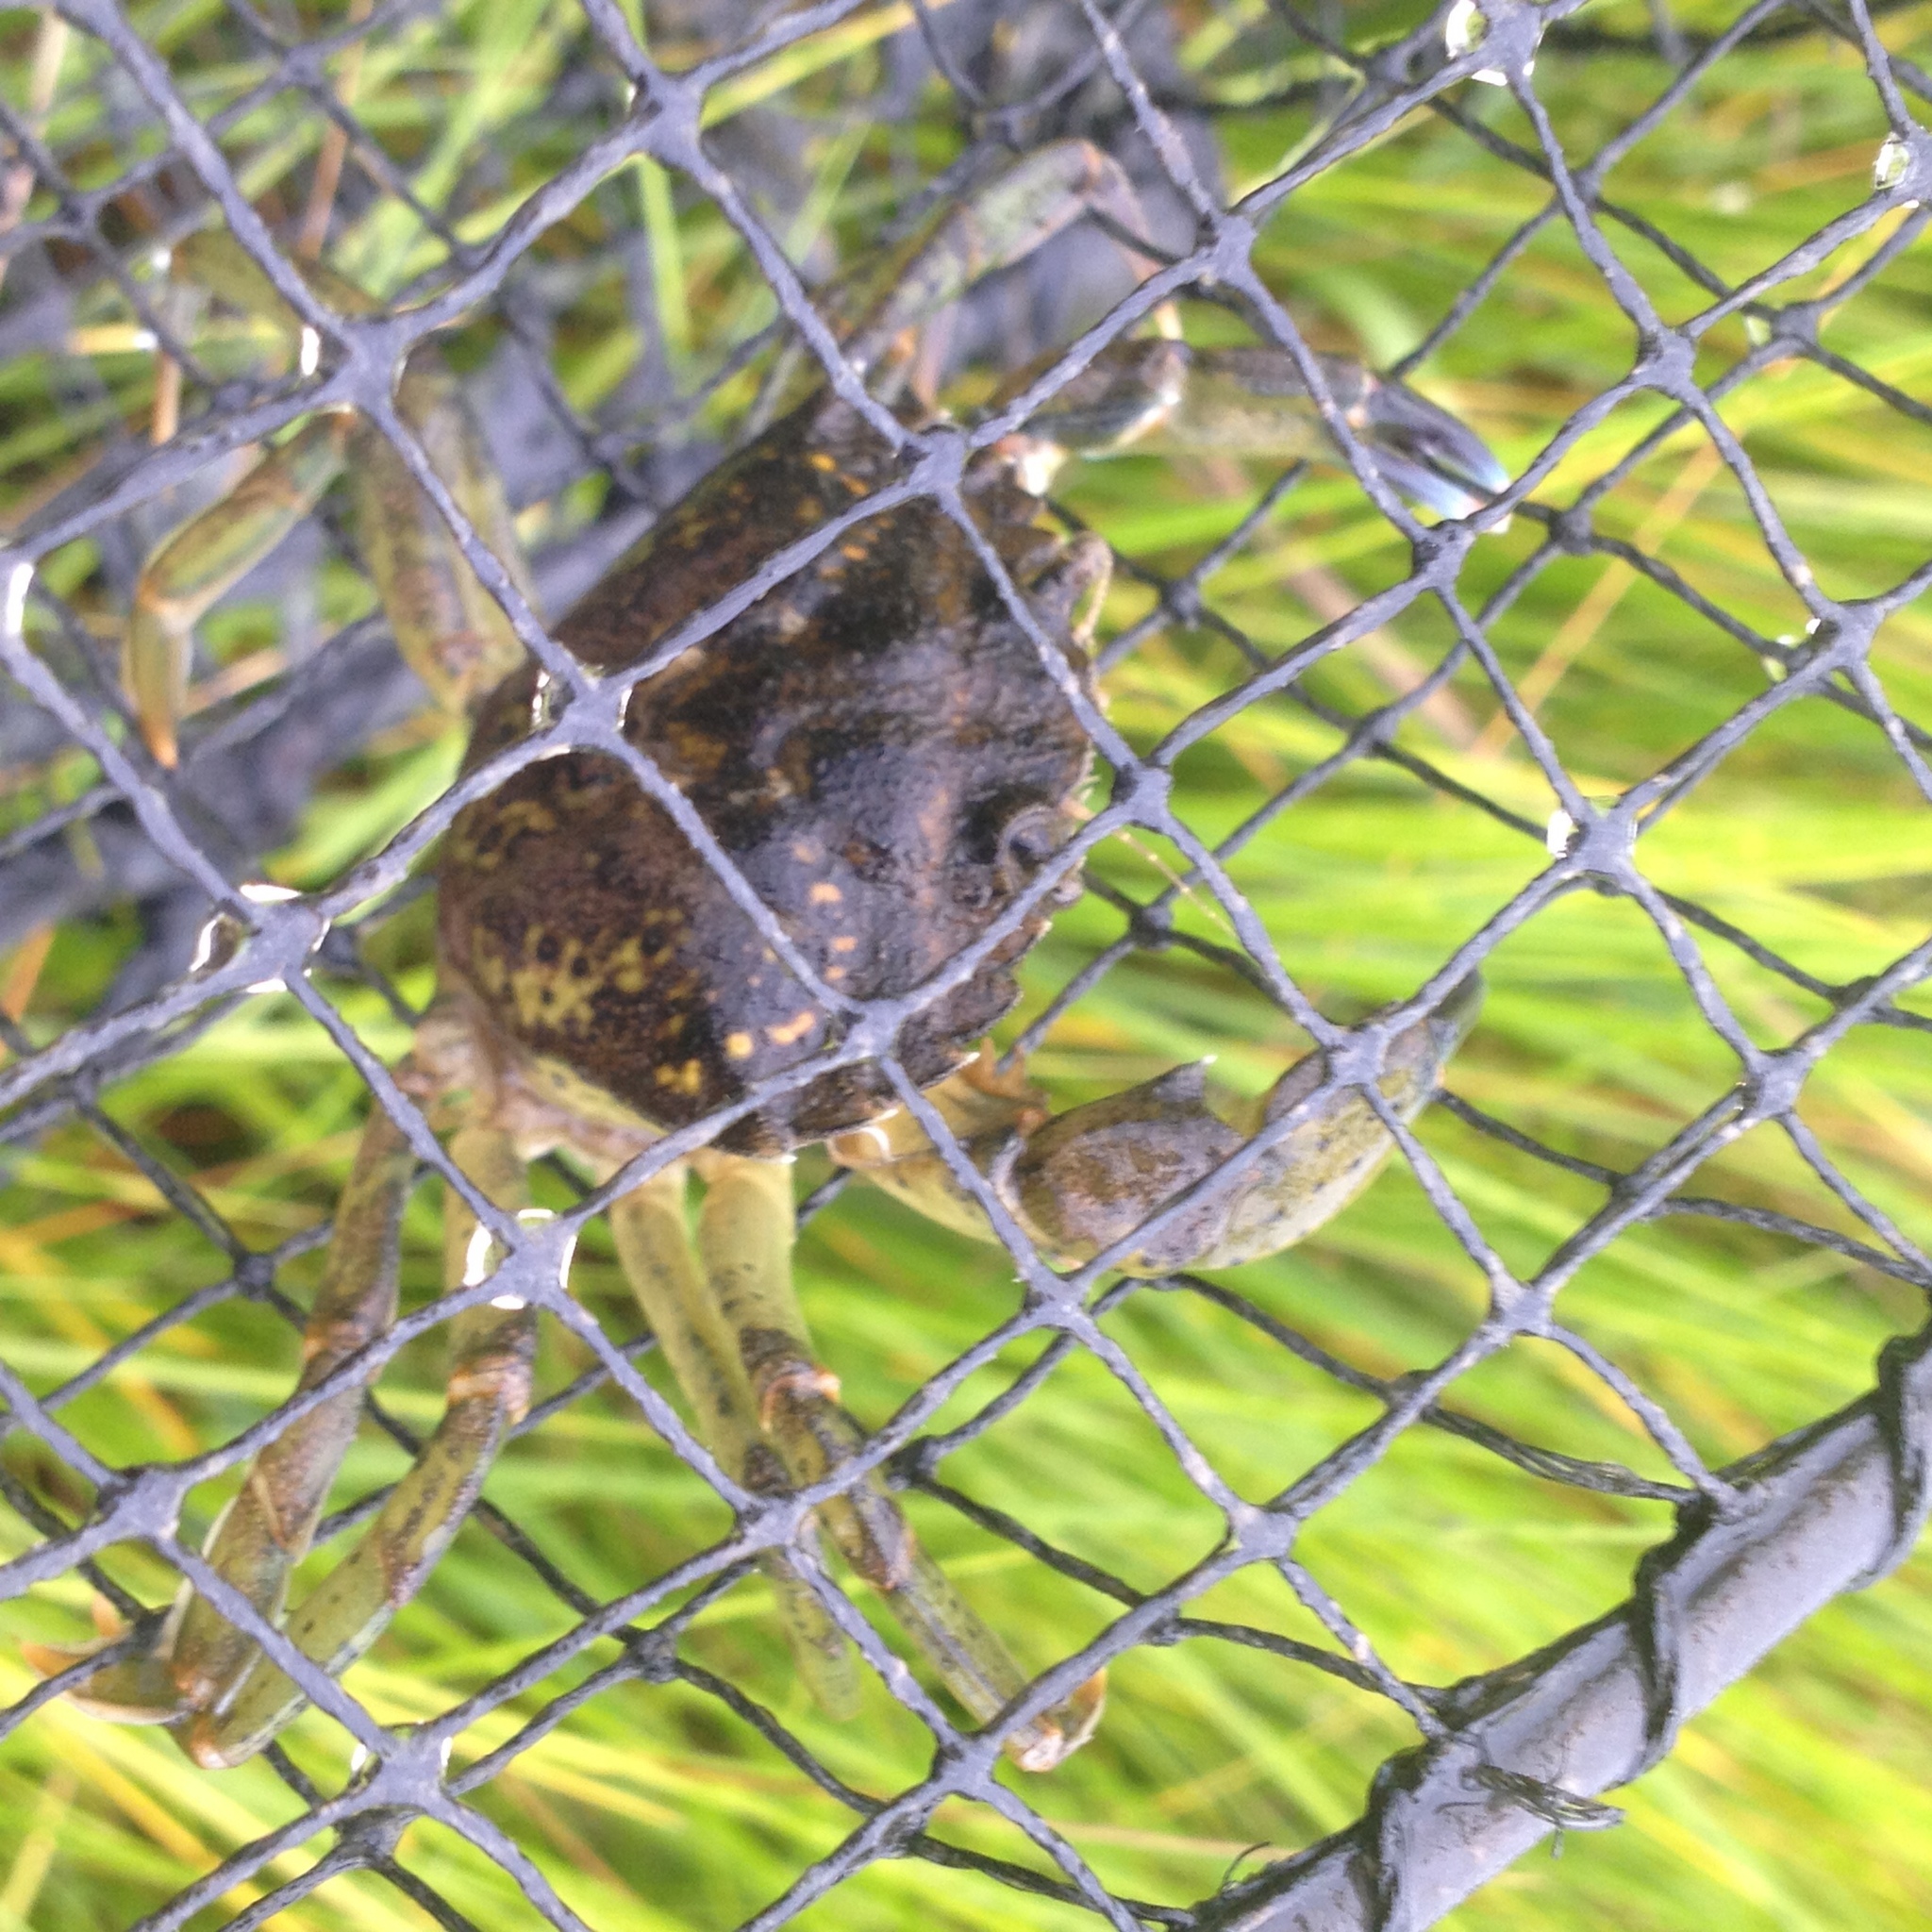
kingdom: Animalia
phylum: Arthropoda
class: Malacostraca
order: Decapoda
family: Carcinidae
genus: Carcinus
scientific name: Carcinus maenas
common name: European green crab
